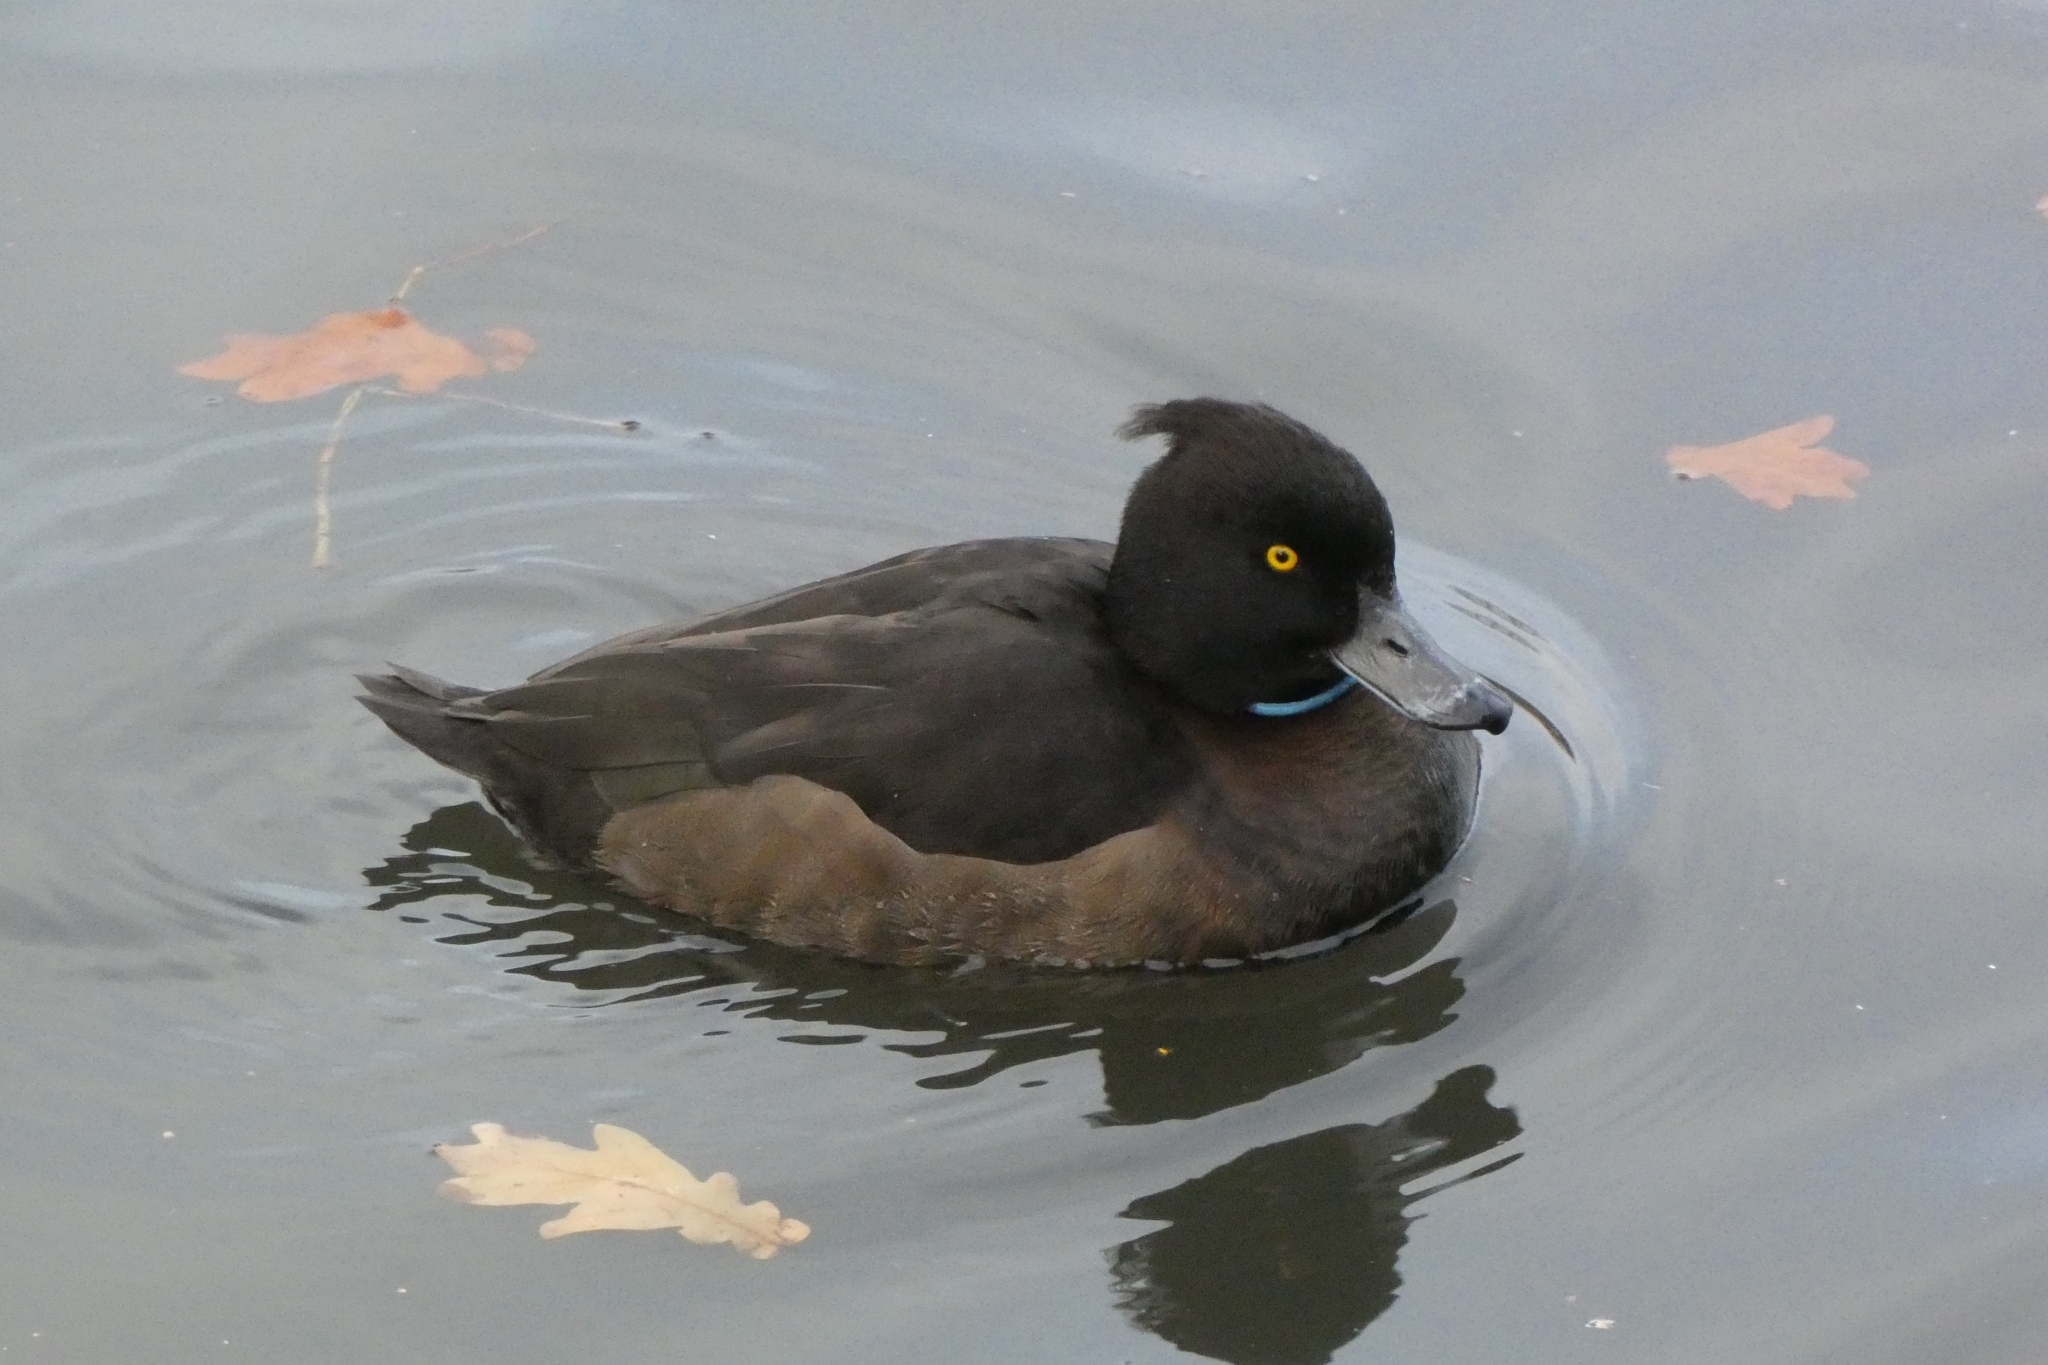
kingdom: Animalia
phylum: Chordata
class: Aves
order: Anseriformes
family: Anatidae
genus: Aythya
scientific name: Aythya fuligula
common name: Tufted duck
